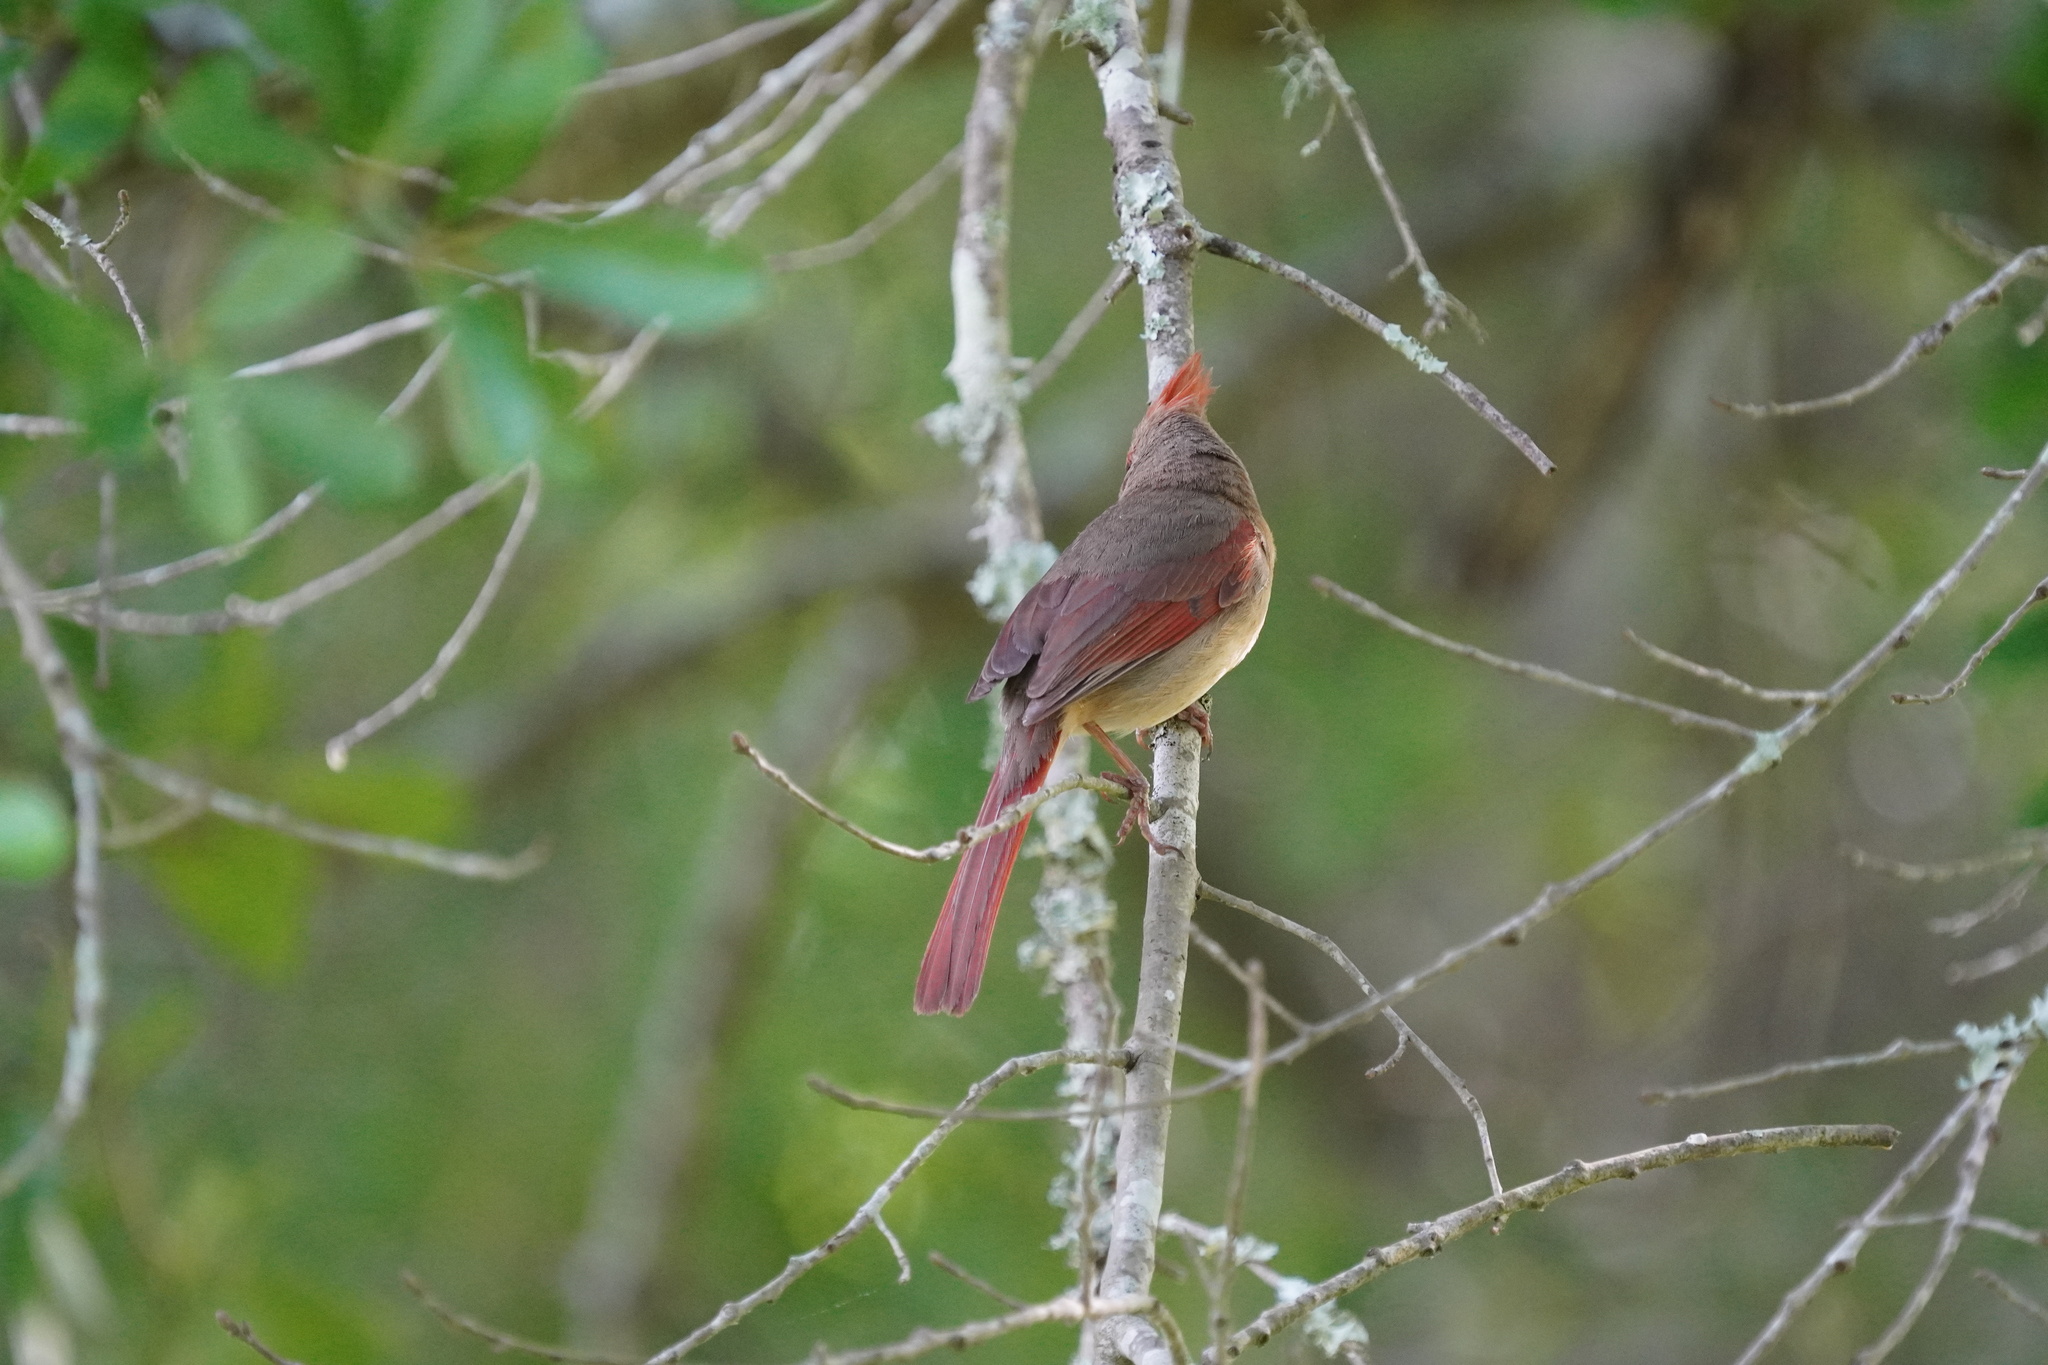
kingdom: Animalia
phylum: Chordata
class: Aves
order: Passeriformes
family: Cardinalidae
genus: Cardinalis
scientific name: Cardinalis cardinalis
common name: Northern cardinal
